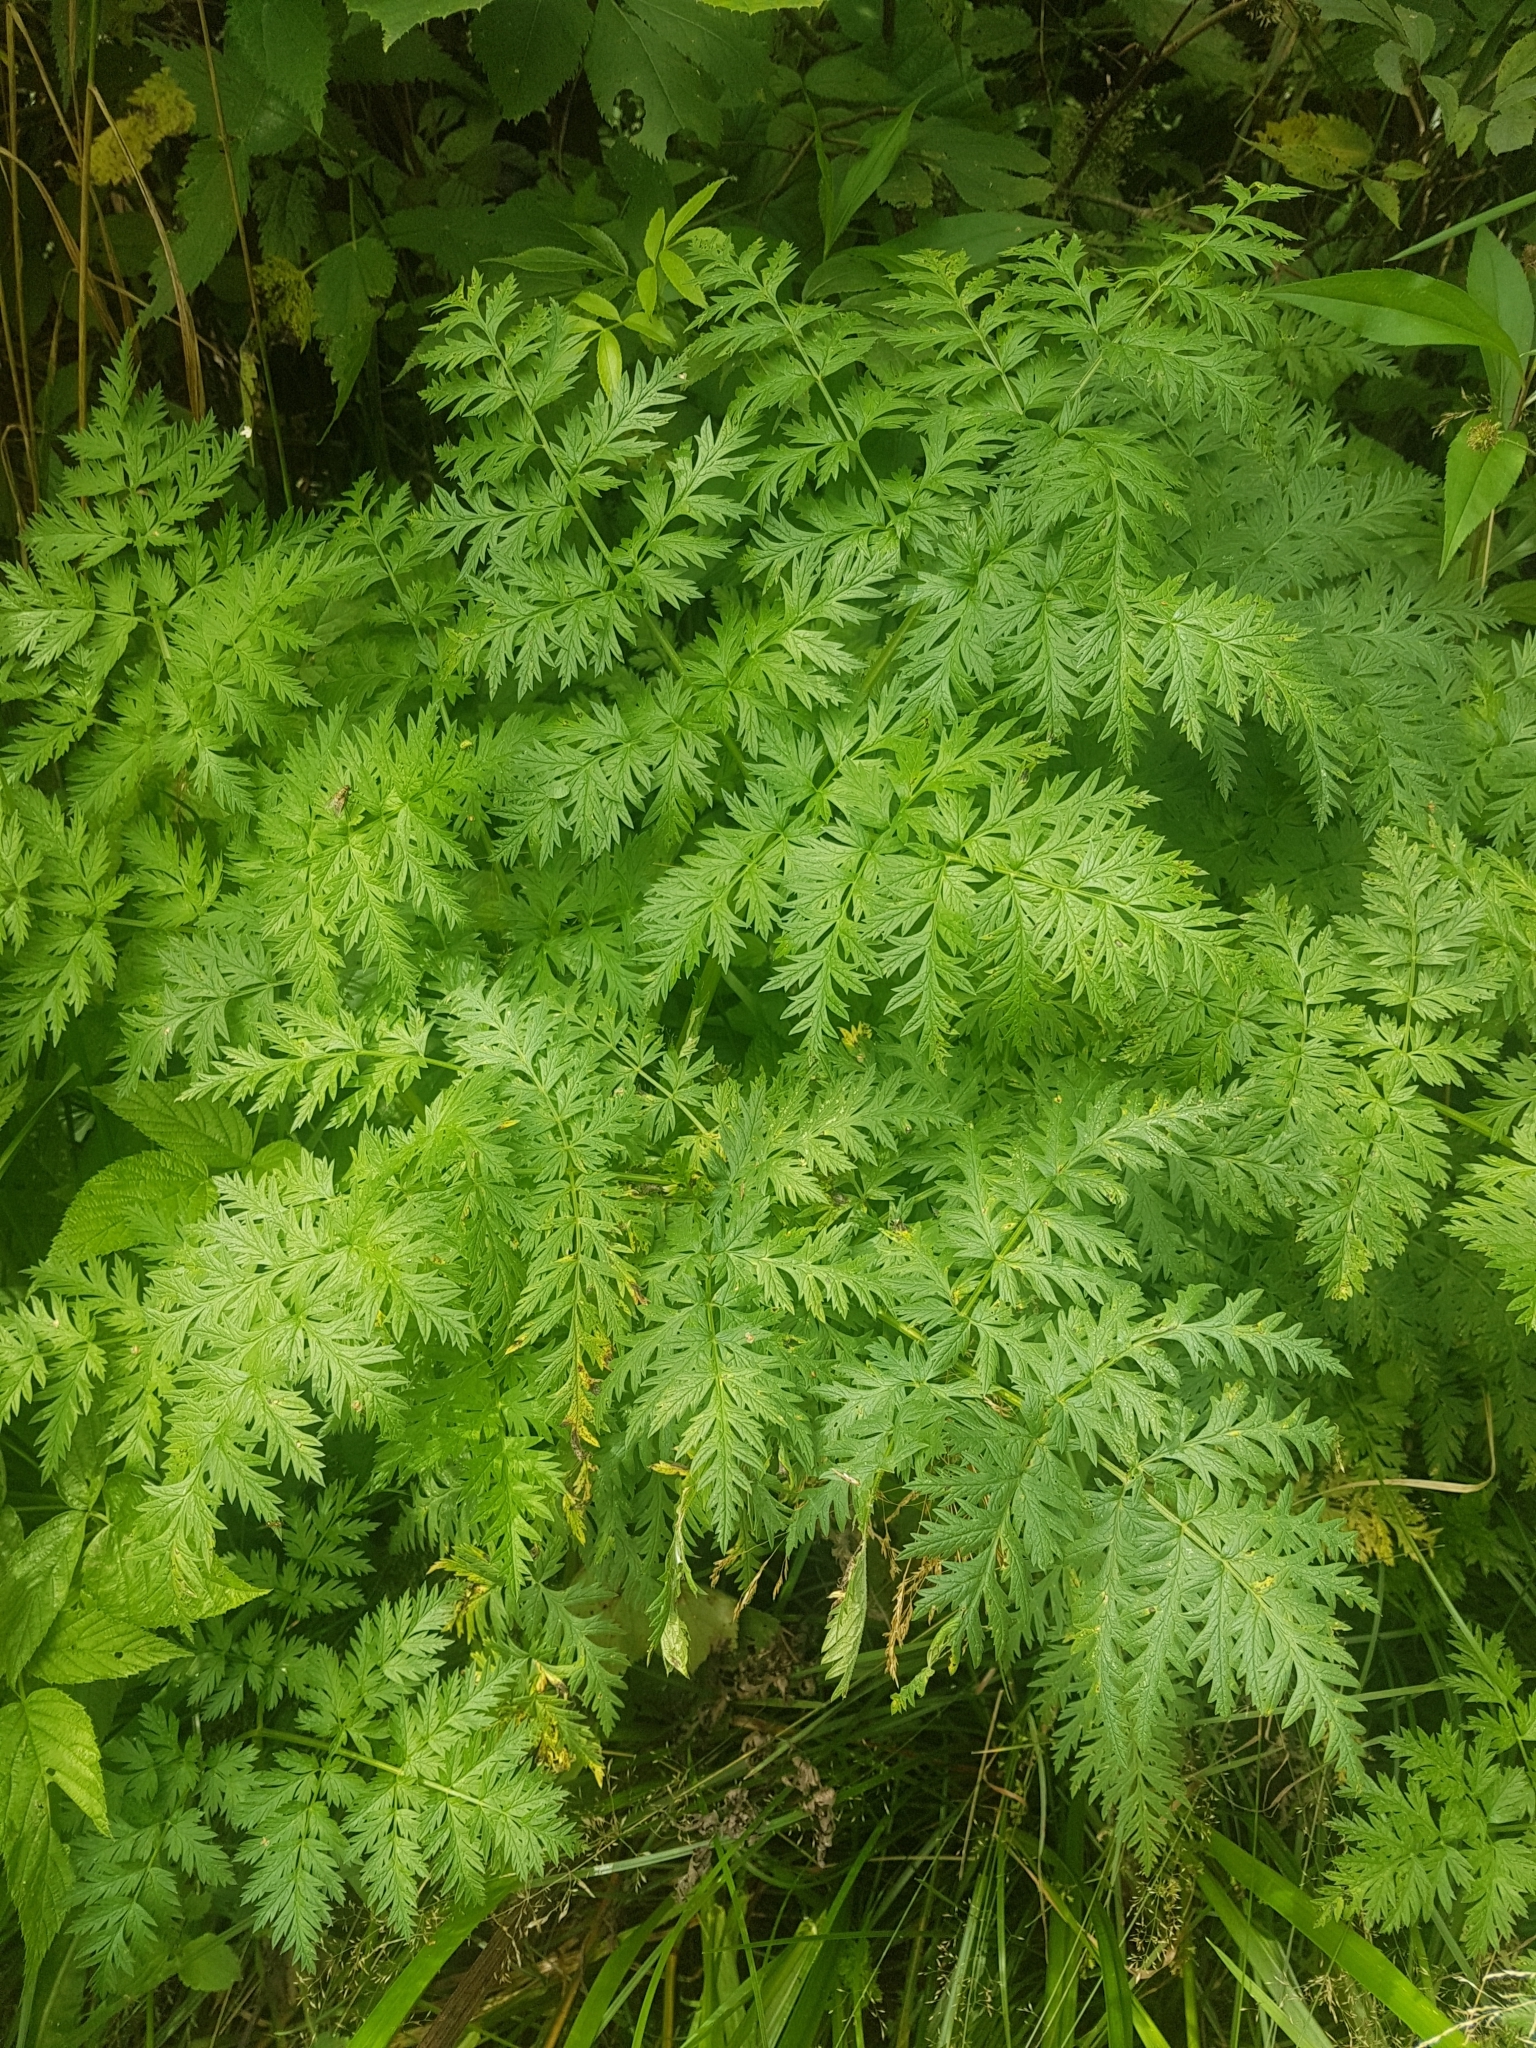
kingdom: Plantae
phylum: Tracheophyta
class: Magnoliopsida
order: Apiales
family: Apiaceae
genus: Anthriscus
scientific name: Anthriscus sylvestris
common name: Cow parsley
